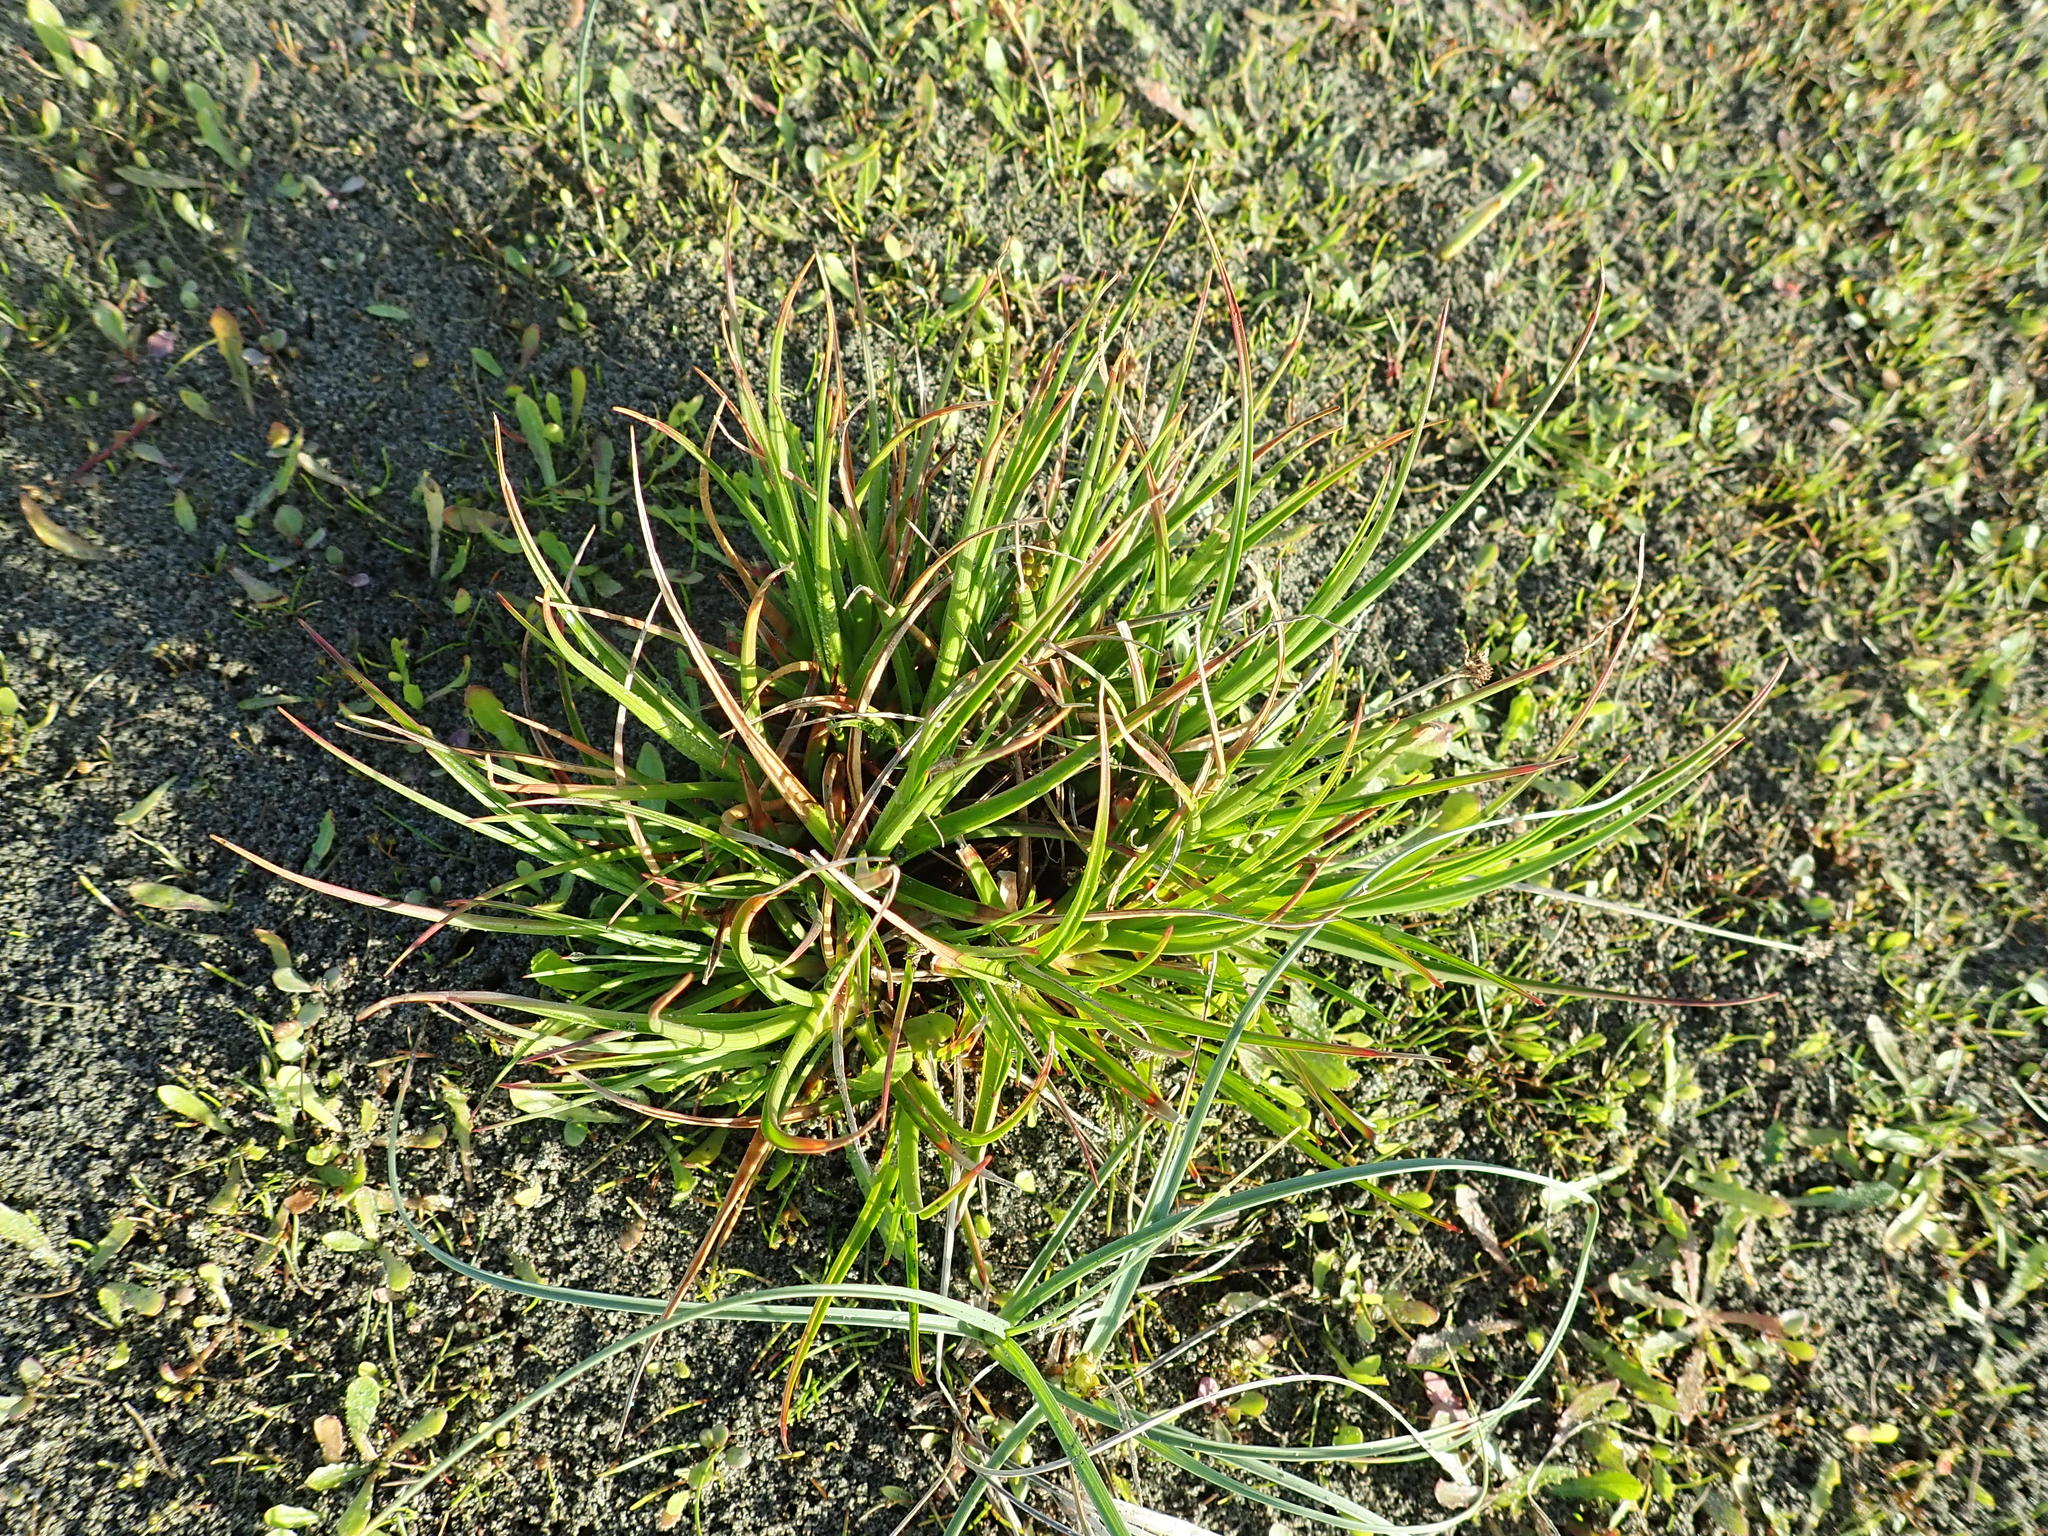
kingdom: Plantae
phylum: Tracheophyta
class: Liliopsida
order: Poales
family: Juncaceae
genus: Juncus
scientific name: Juncus caespiticius
